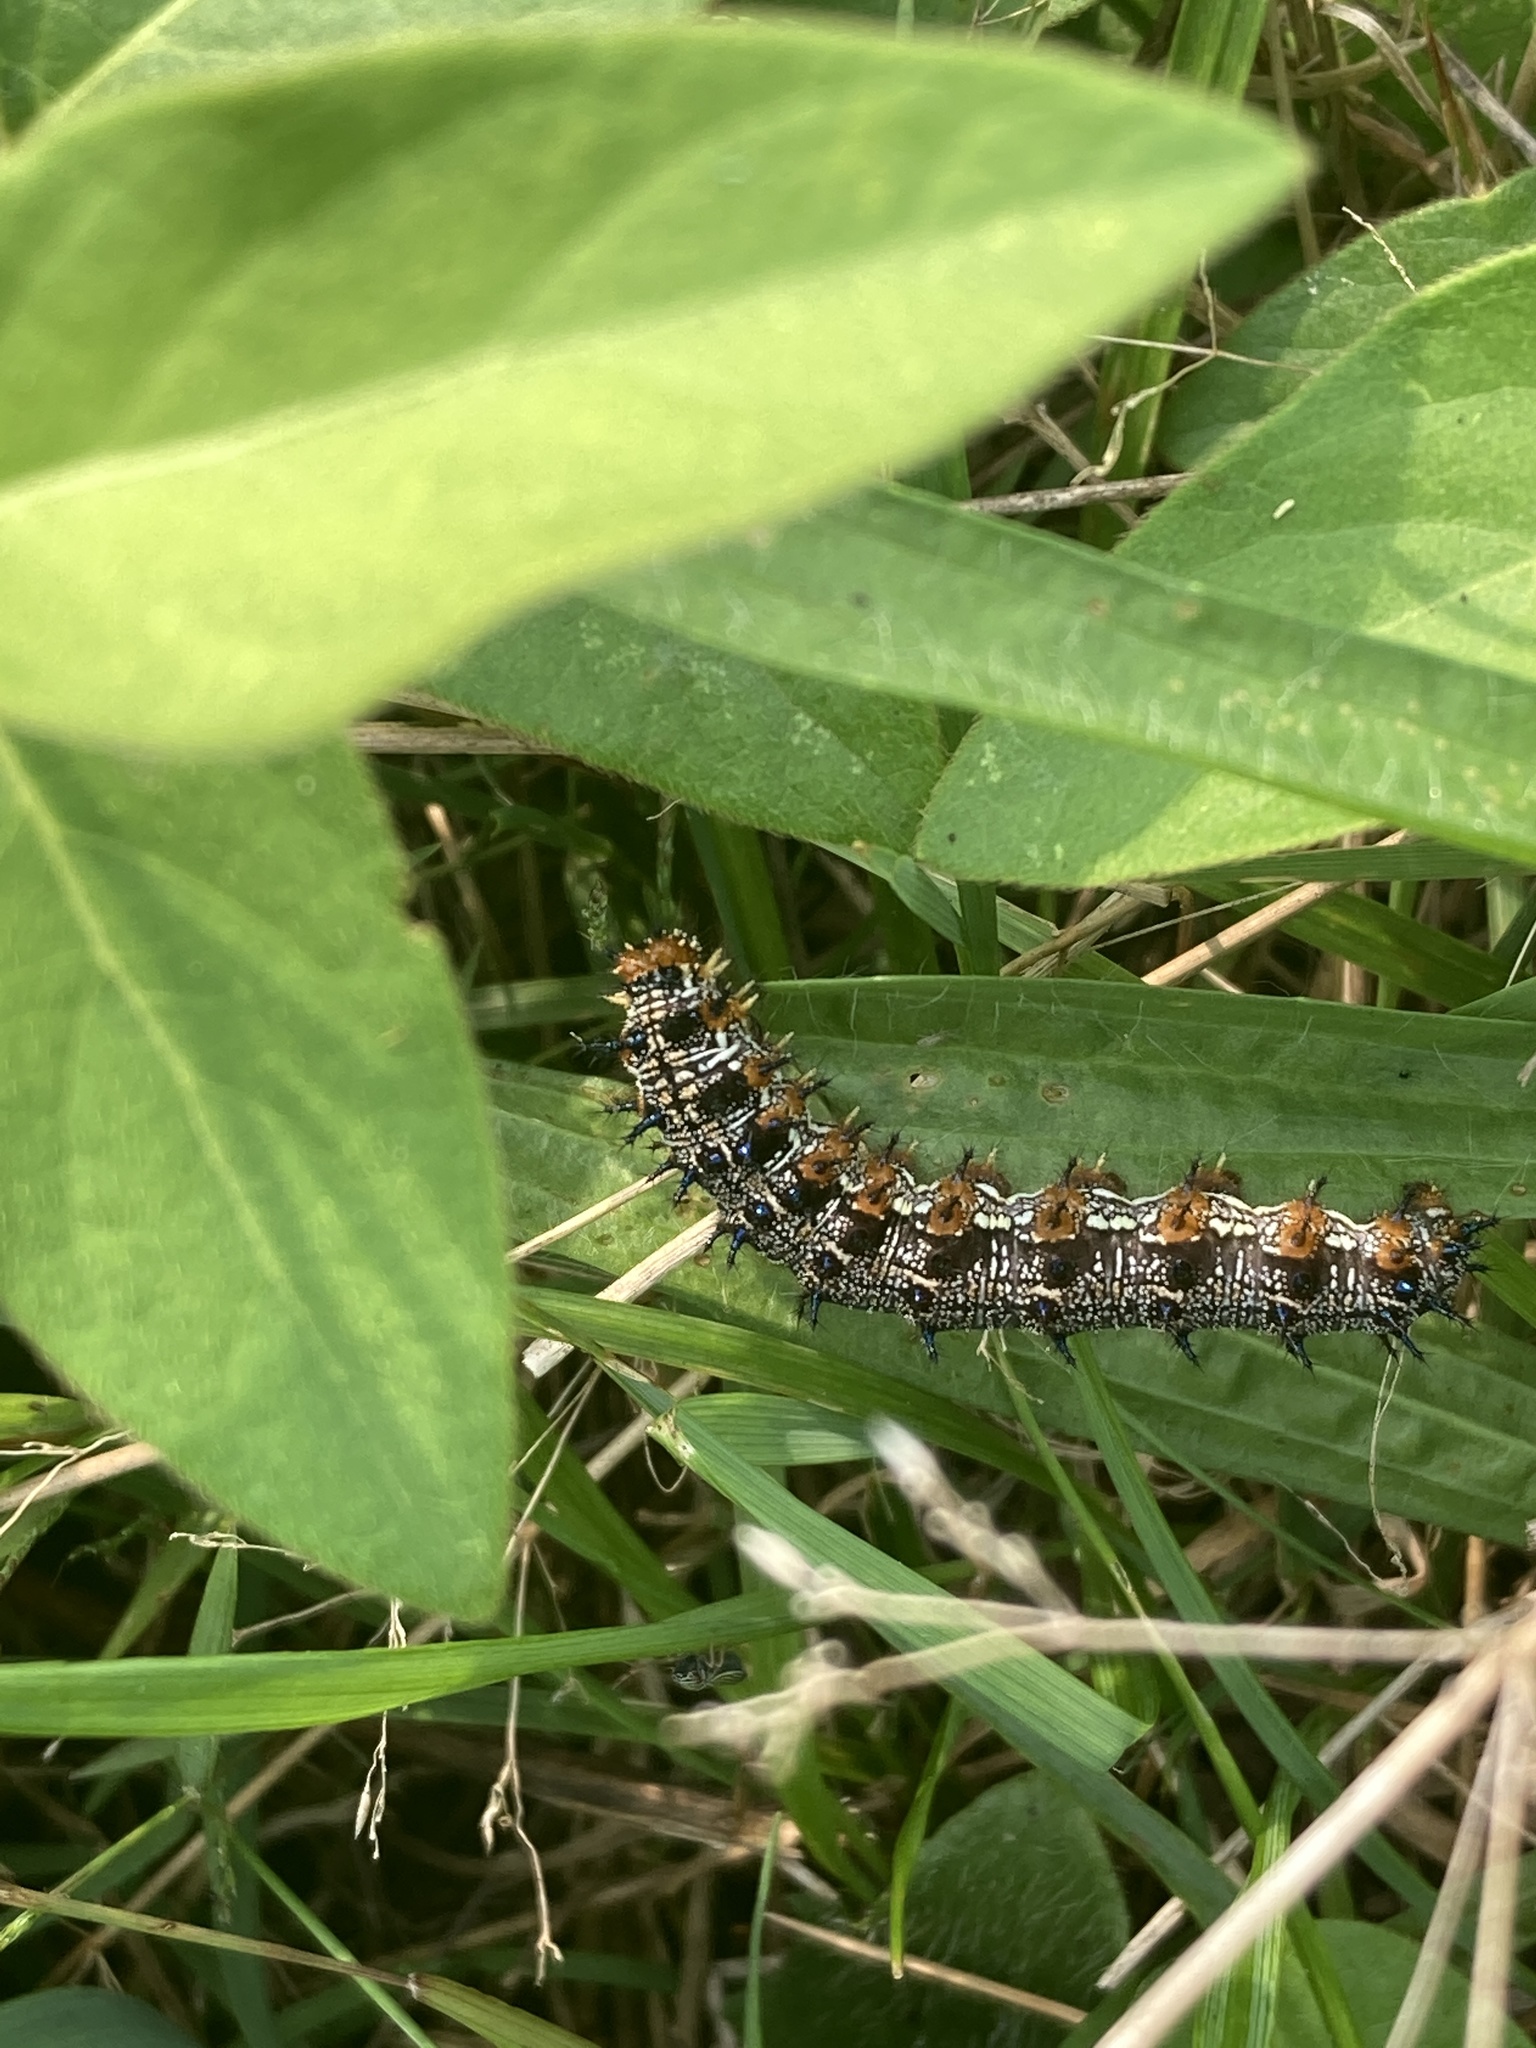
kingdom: Animalia
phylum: Arthropoda
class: Insecta
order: Lepidoptera
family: Nymphalidae
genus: Junonia
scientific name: Junonia coenia
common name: Common buckeye
